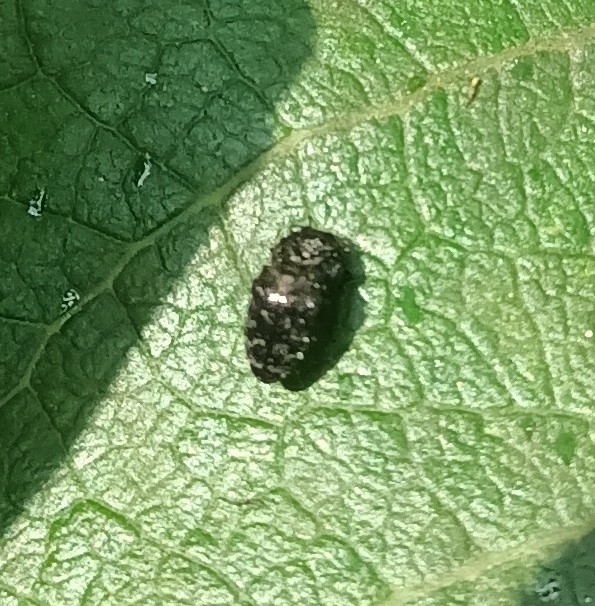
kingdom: Animalia
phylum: Arthropoda
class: Insecta
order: Coleoptera
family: Buprestidae
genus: Trachys
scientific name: Trachys minutus
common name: Metallic wood-boring beetle
